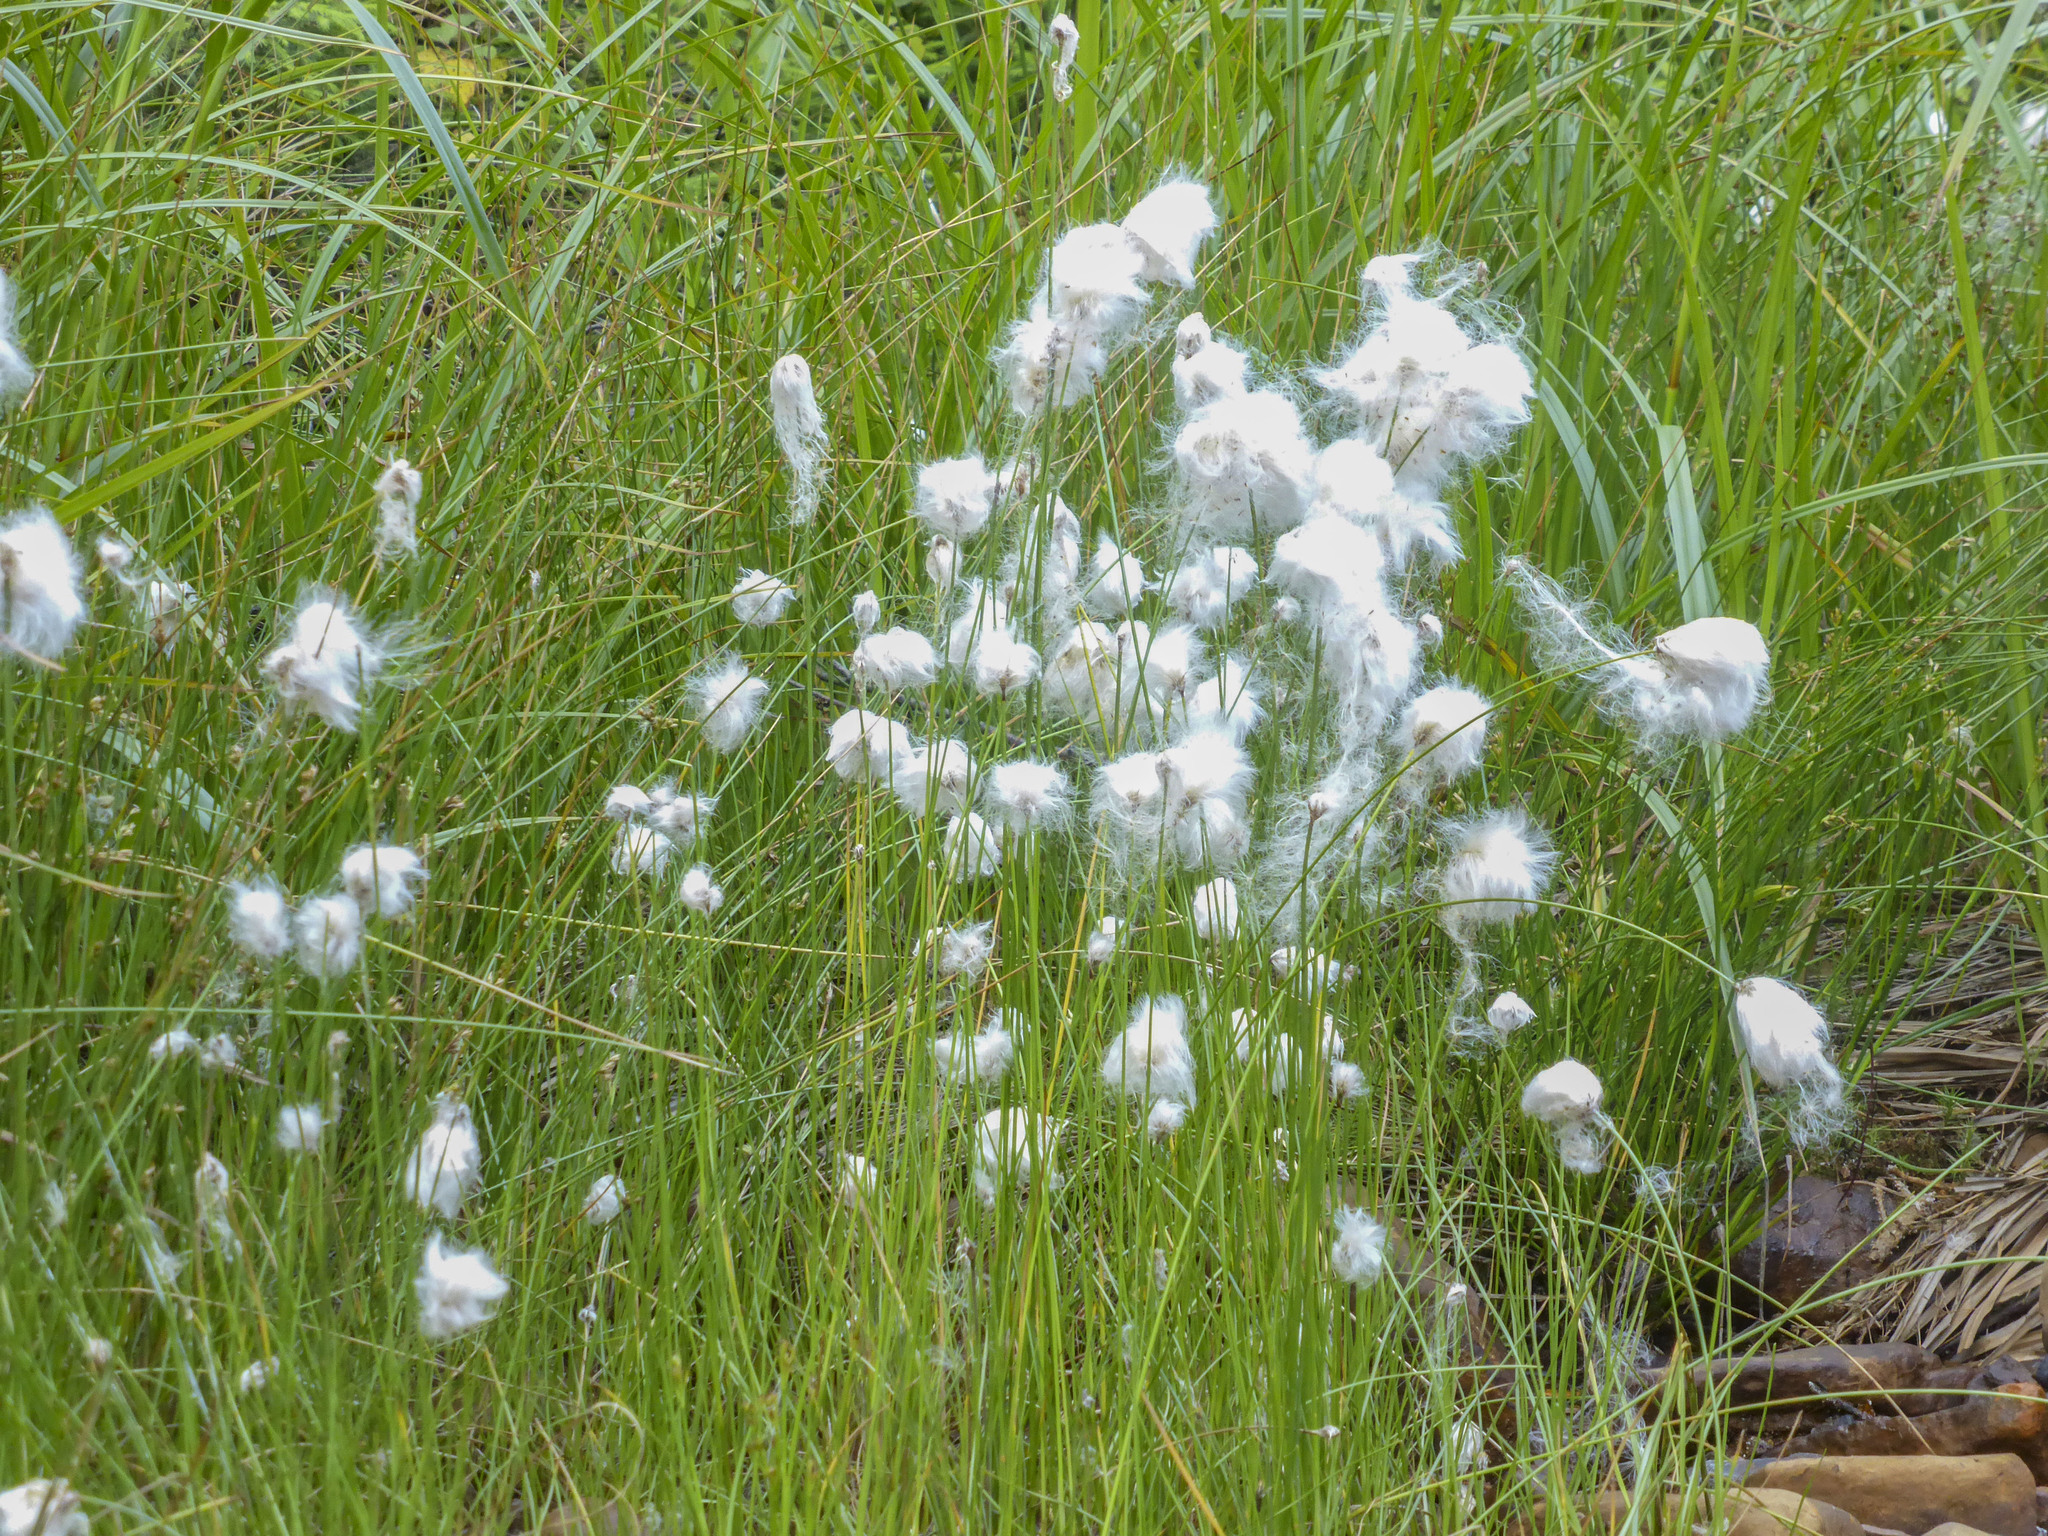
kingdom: Plantae
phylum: Tracheophyta
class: Liliopsida
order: Poales
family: Cyperaceae
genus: Trichophorum
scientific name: Trichophorum alpinum
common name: Alpine bulrush
